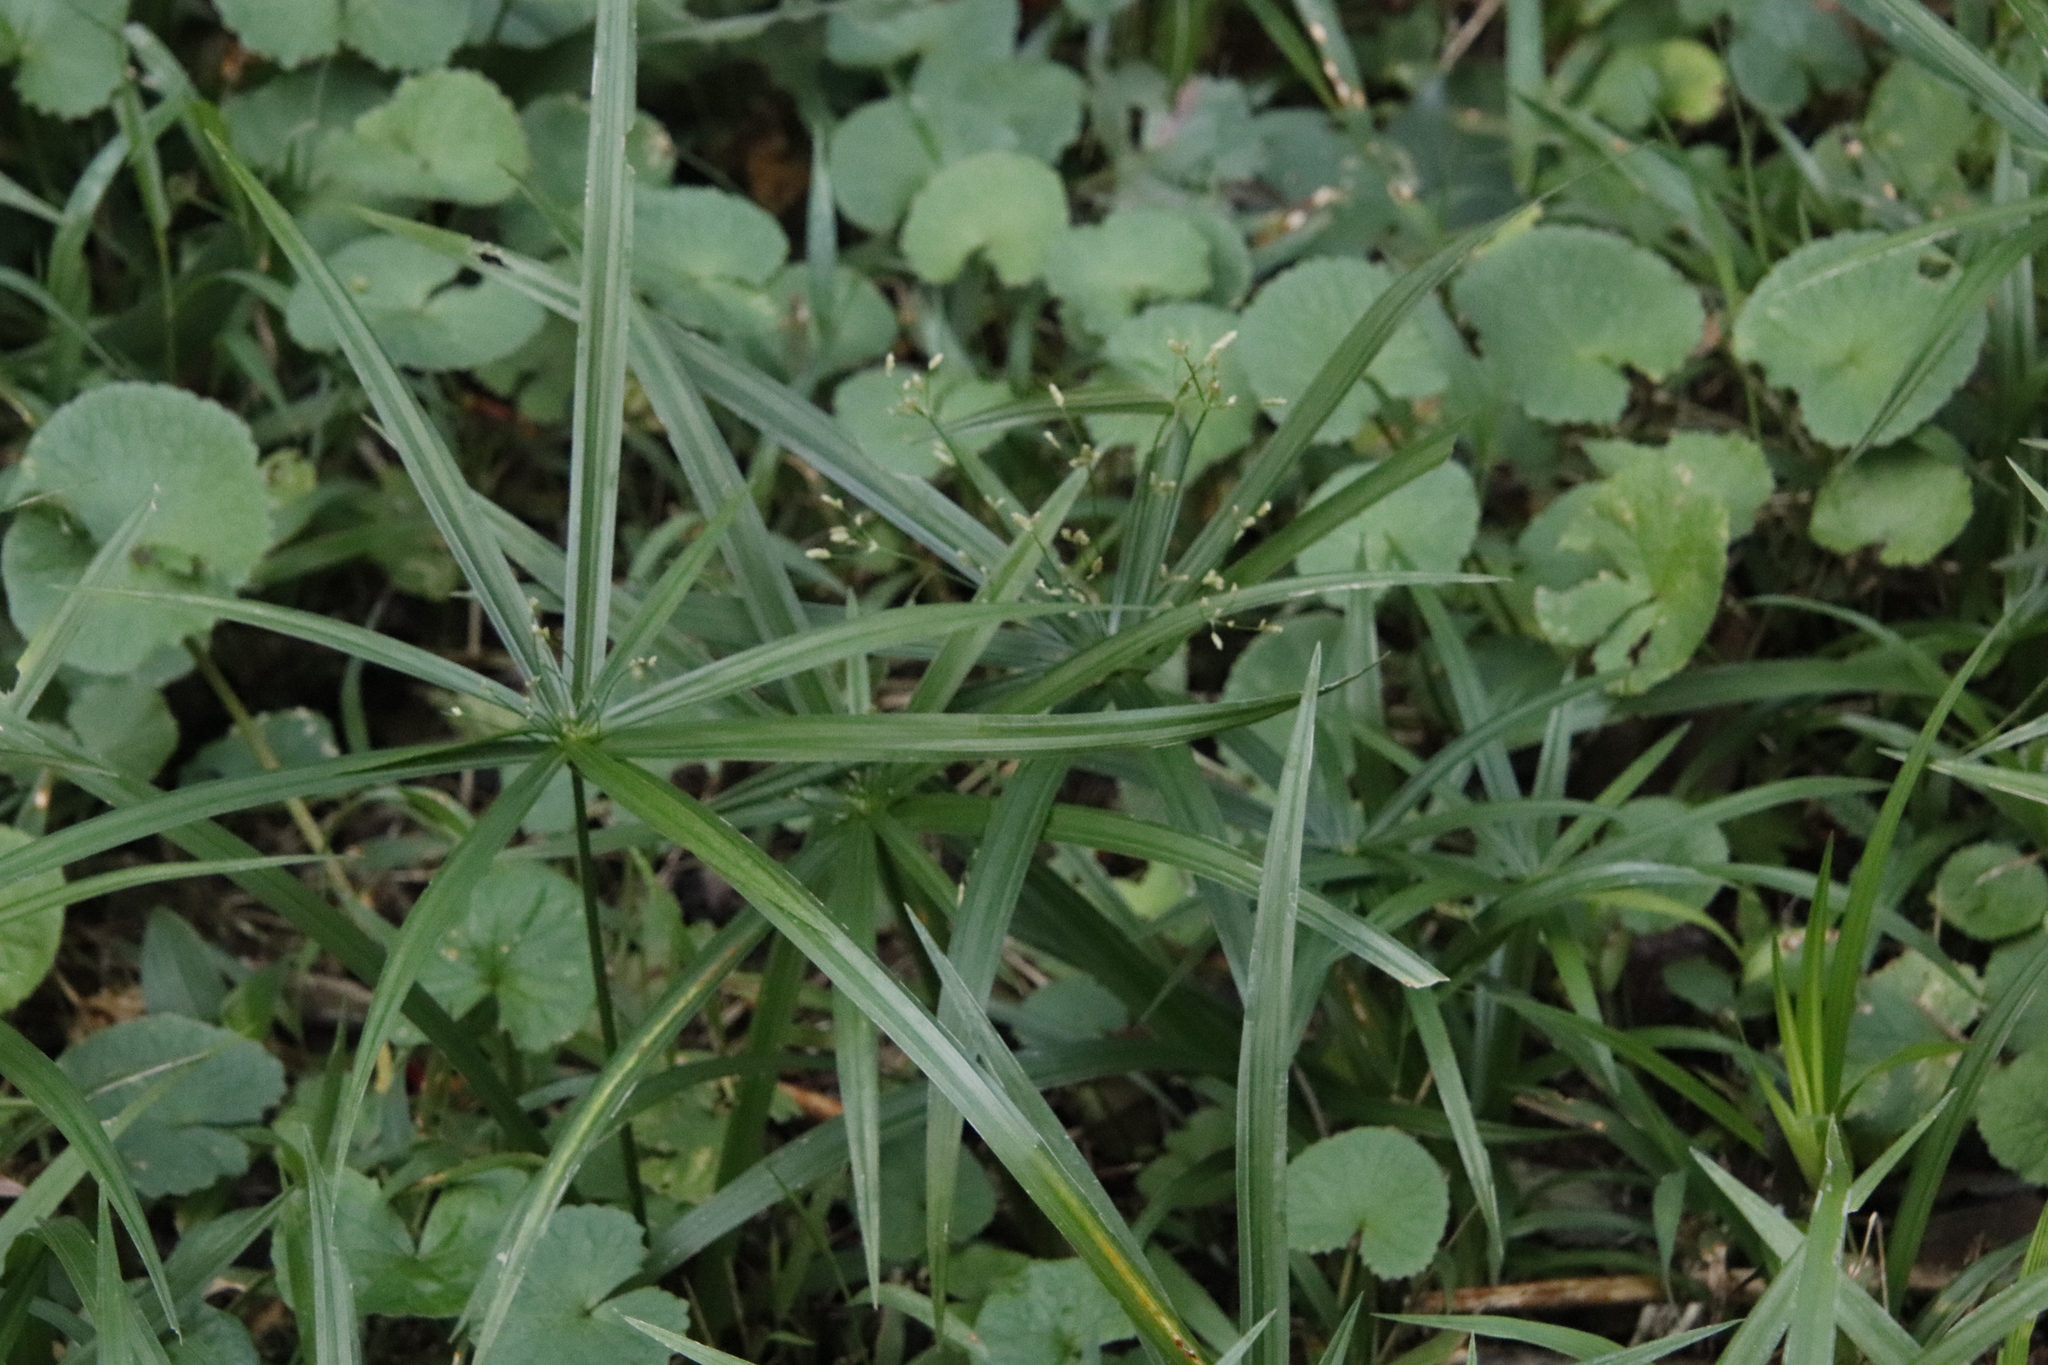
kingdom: Plantae
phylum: Tracheophyta
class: Liliopsida
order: Poales
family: Cyperaceae
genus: Cyperus
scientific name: Cyperus albostriatus
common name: Dwarf umbrella-grass
